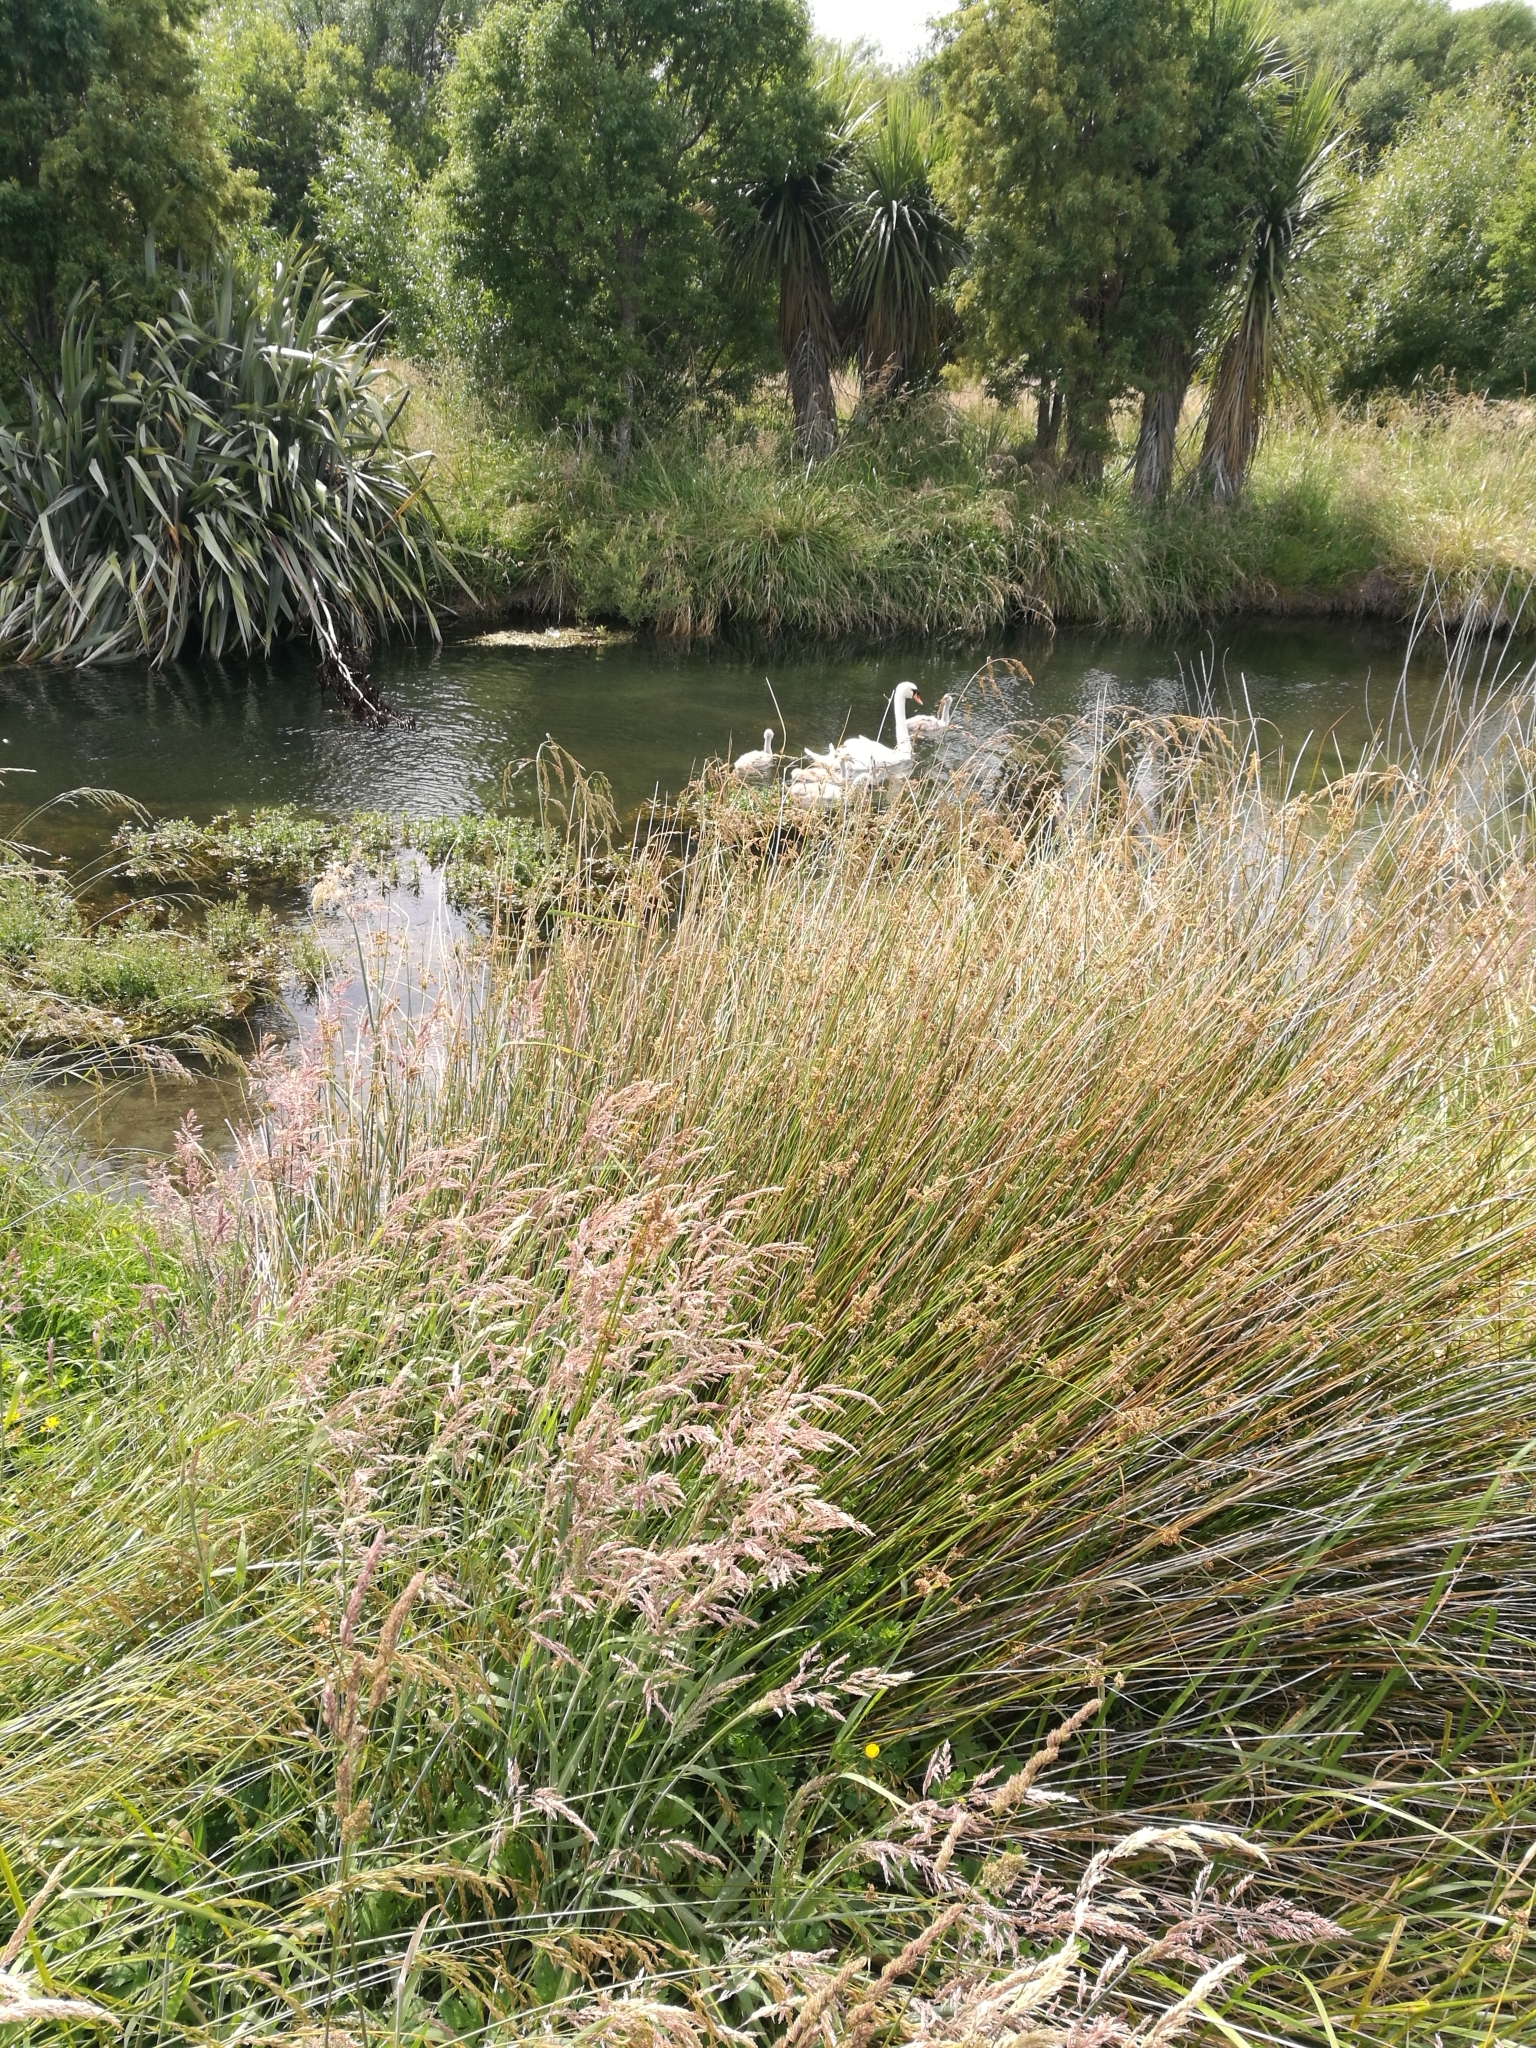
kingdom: Animalia
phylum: Chordata
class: Aves
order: Anseriformes
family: Anatidae
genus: Cygnus
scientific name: Cygnus olor
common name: Mute swan
